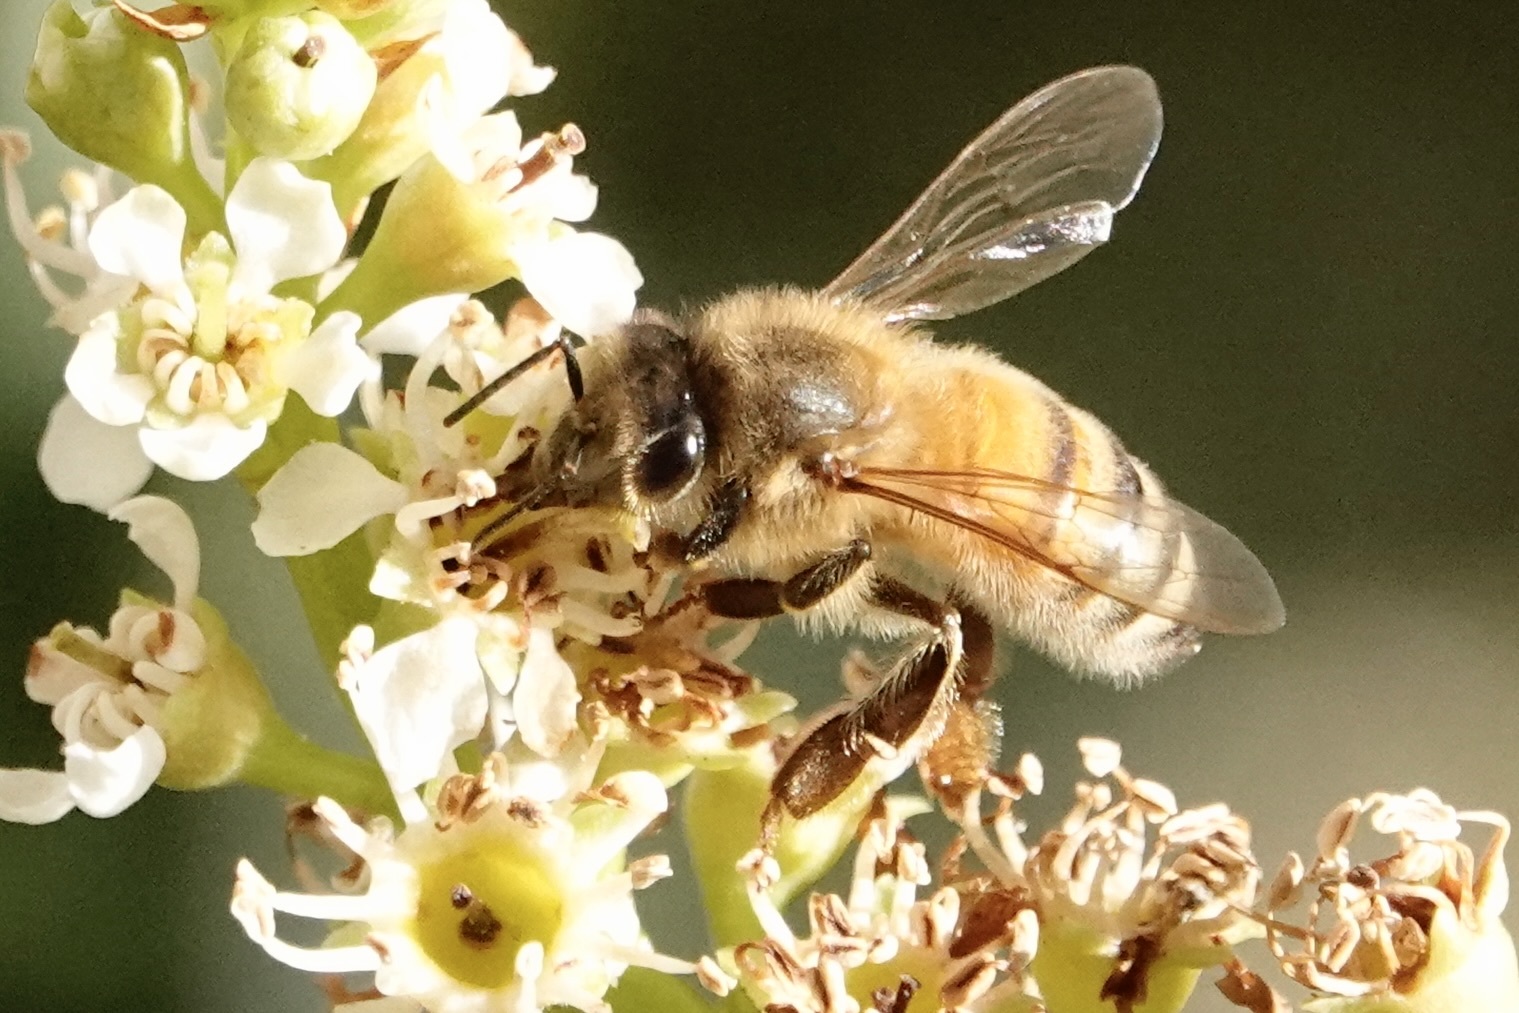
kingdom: Animalia
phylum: Arthropoda
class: Insecta
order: Hymenoptera
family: Apidae
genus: Apis
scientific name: Apis mellifera
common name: Honey bee
